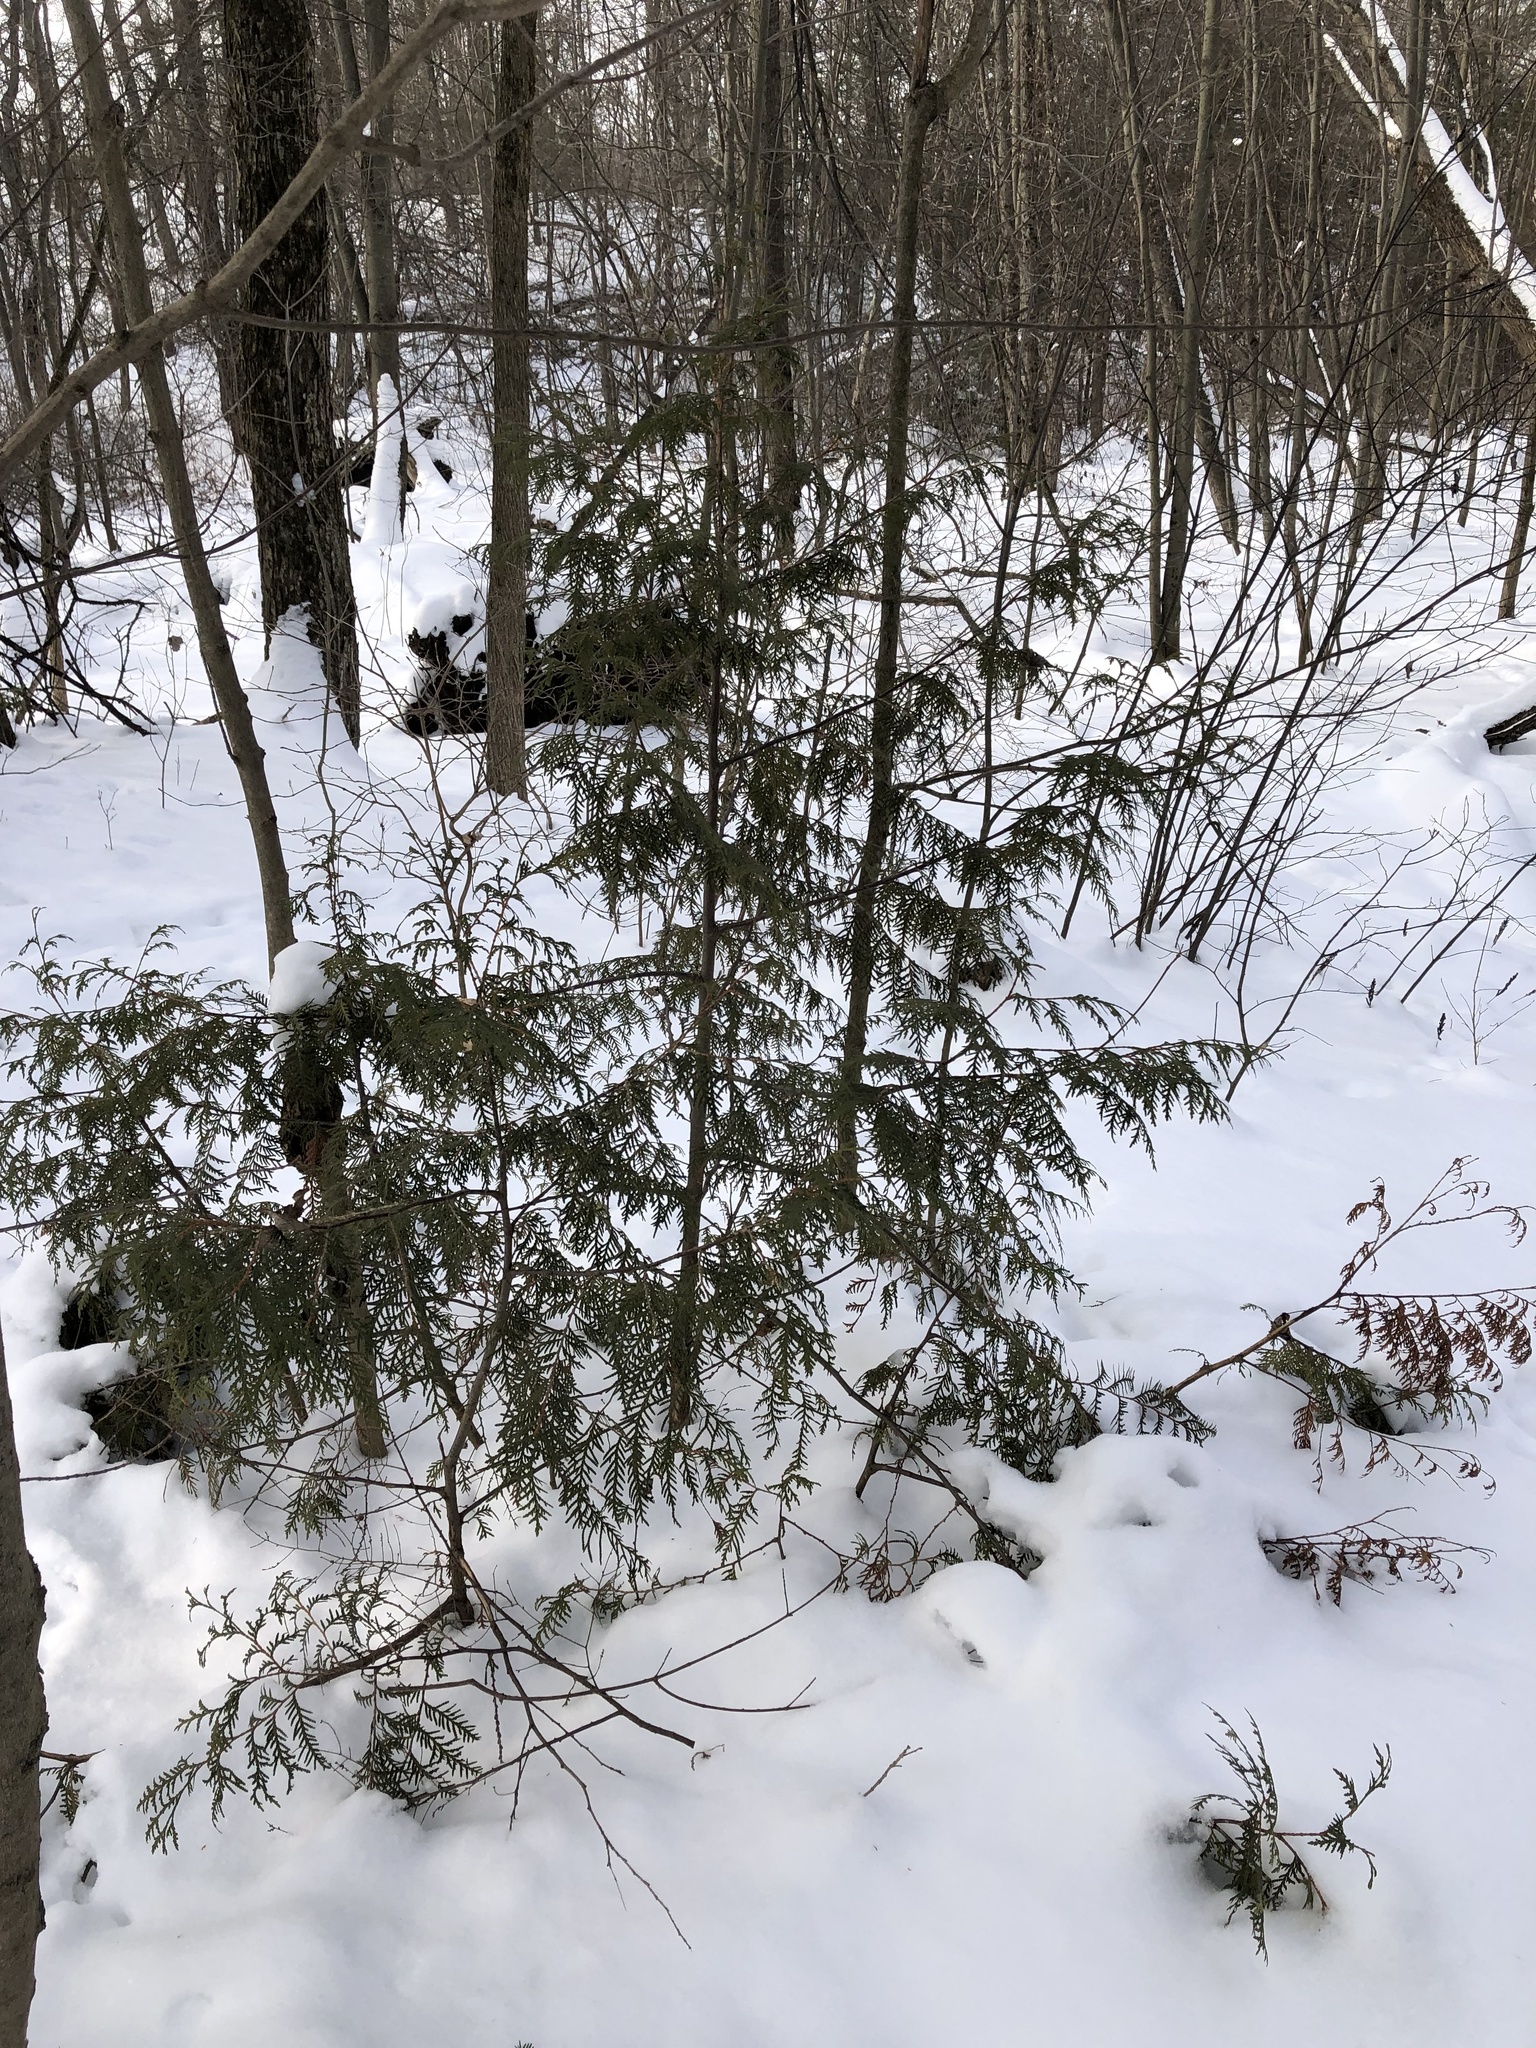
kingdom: Plantae
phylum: Tracheophyta
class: Pinopsida
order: Pinales
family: Cupressaceae
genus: Thuja
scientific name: Thuja occidentalis
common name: Northern white-cedar
